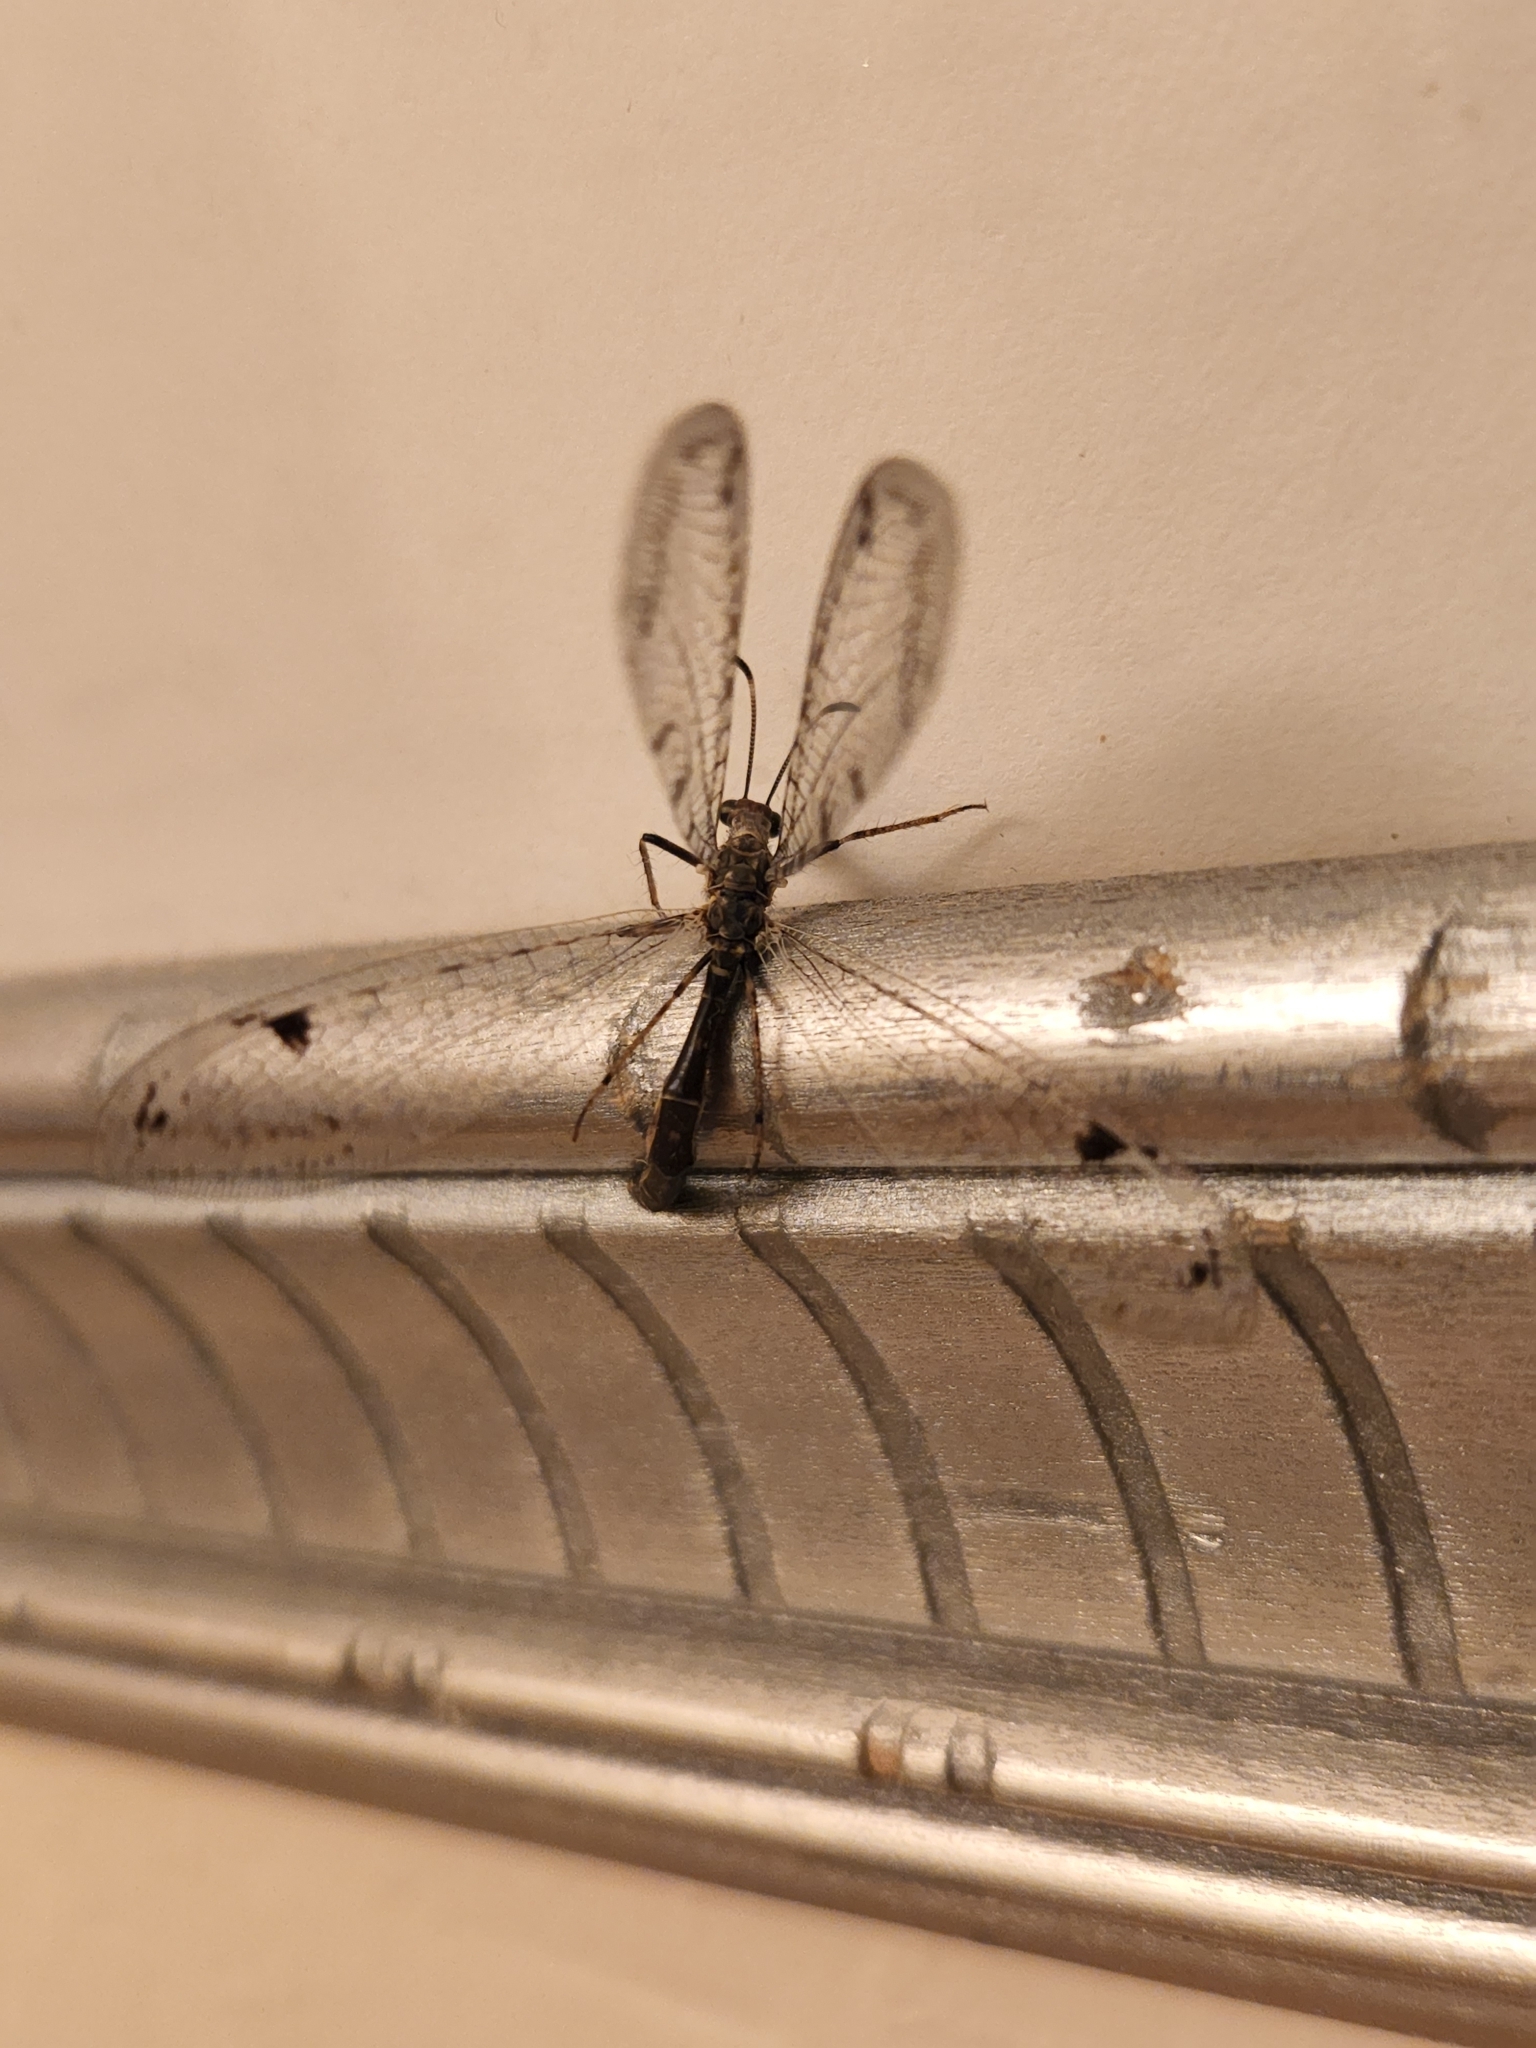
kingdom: Animalia
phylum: Arthropoda
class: Insecta
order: Neuroptera
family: Myrmeleontidae
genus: Dendroleon
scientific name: Dendroleon speciosus
